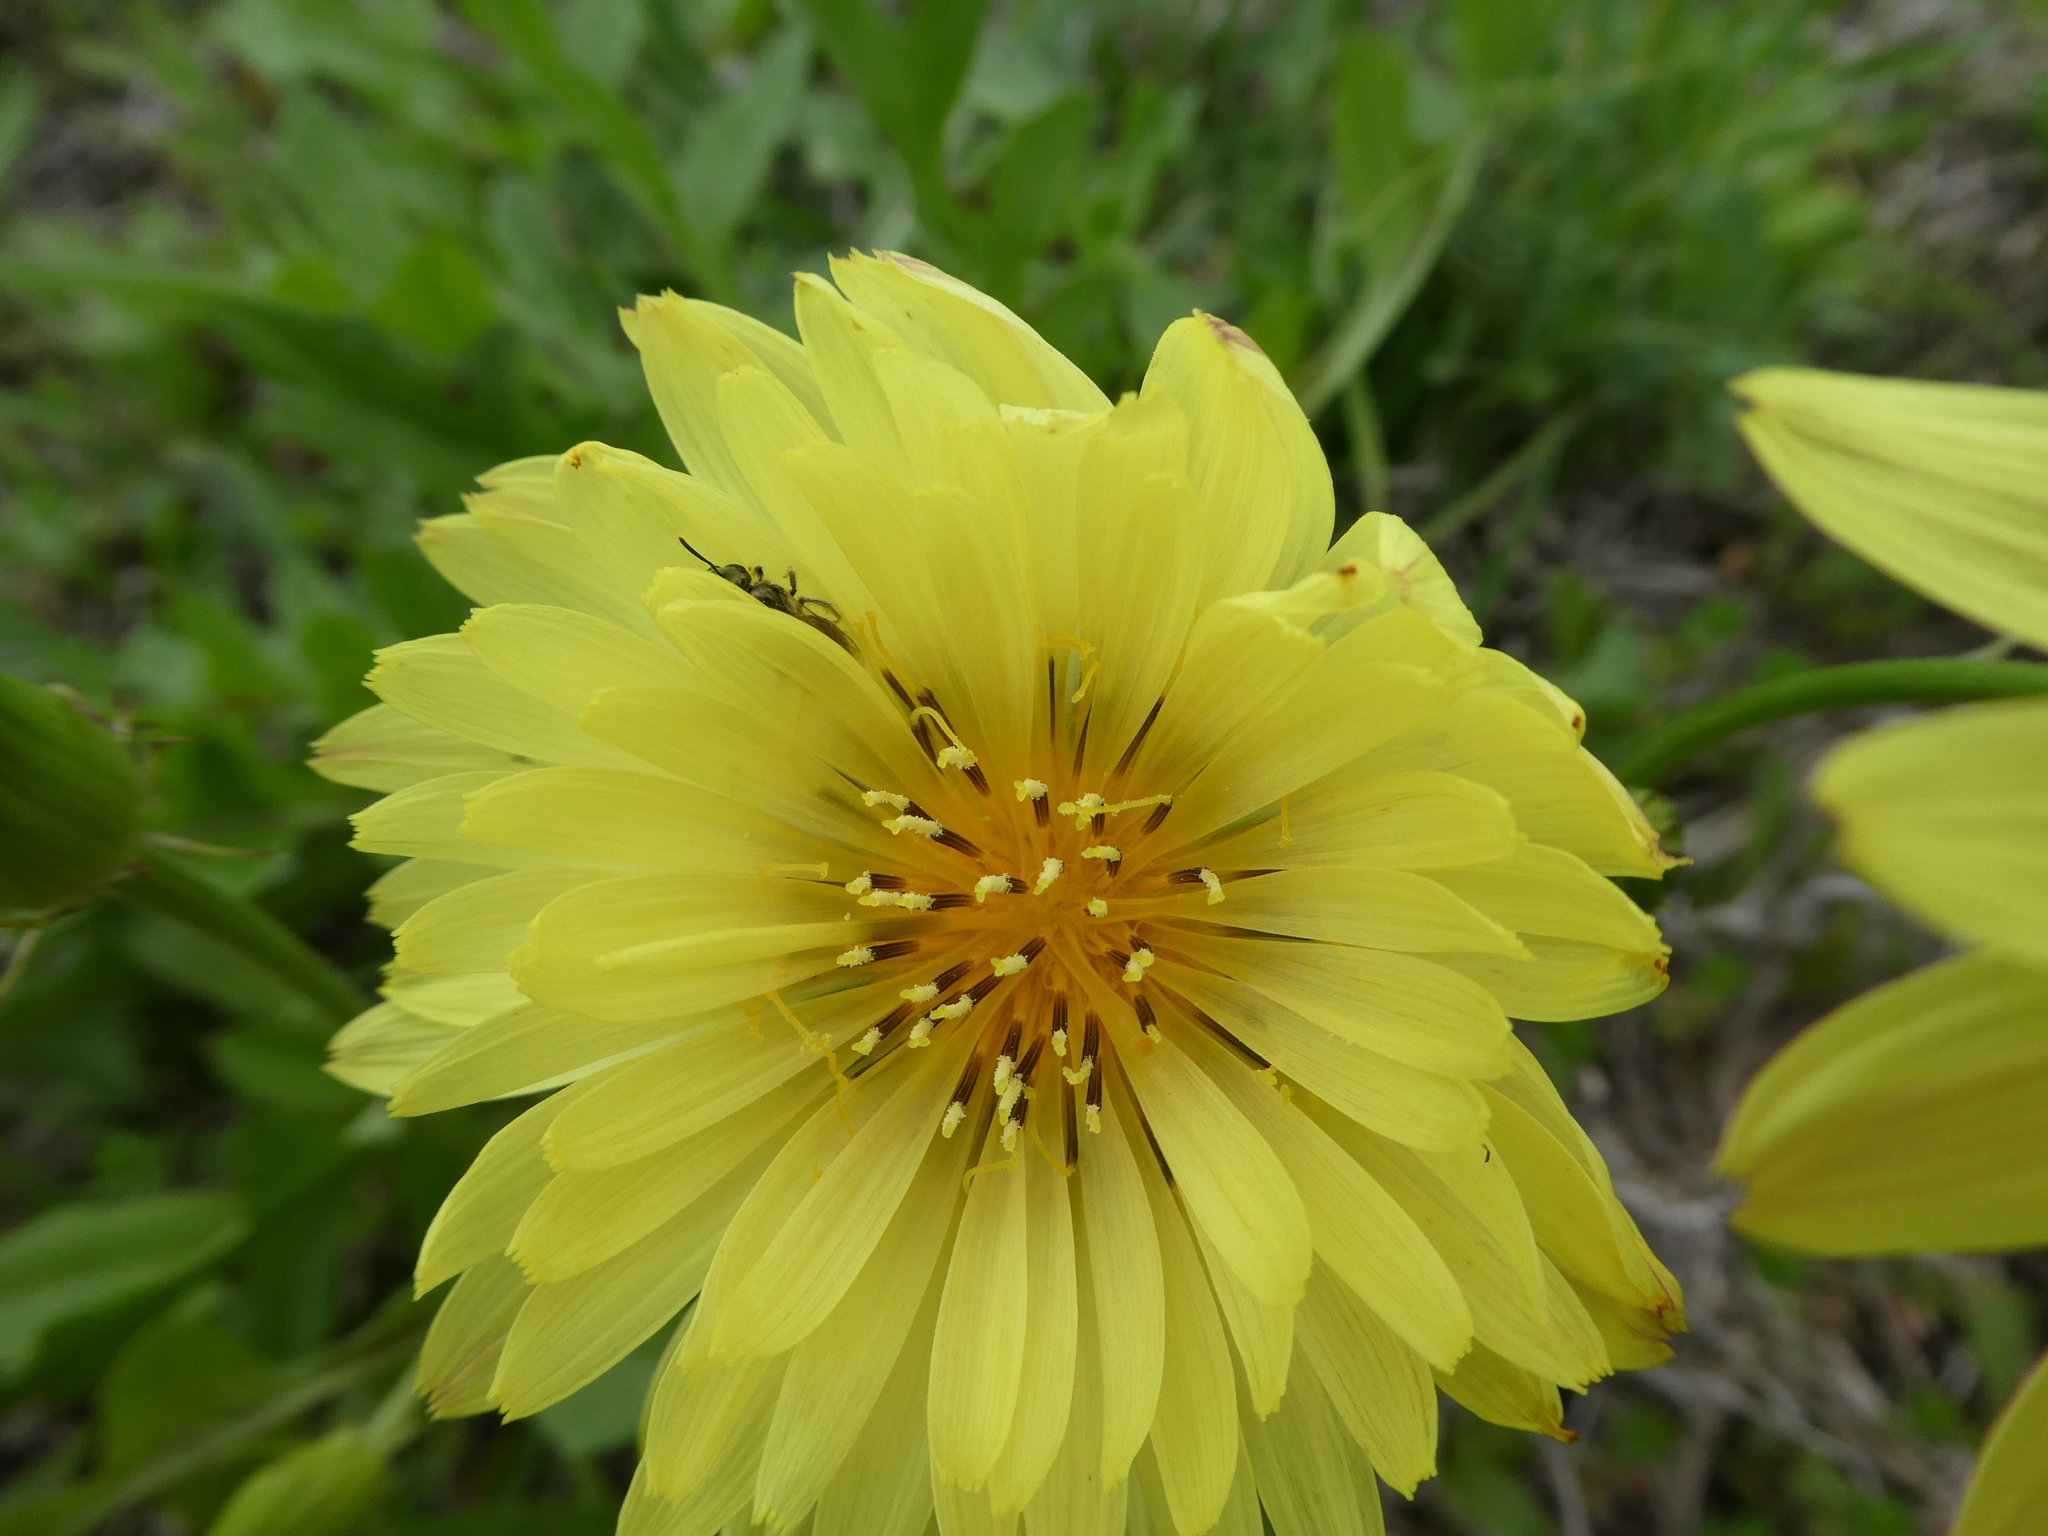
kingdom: Plantae
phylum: Tracheophyta
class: Magnoliopsida
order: Asterales
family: Asteraceae
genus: Pyrrhopappus
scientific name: Pyrrhopappus pauciflorus
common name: Texas false dandelion
